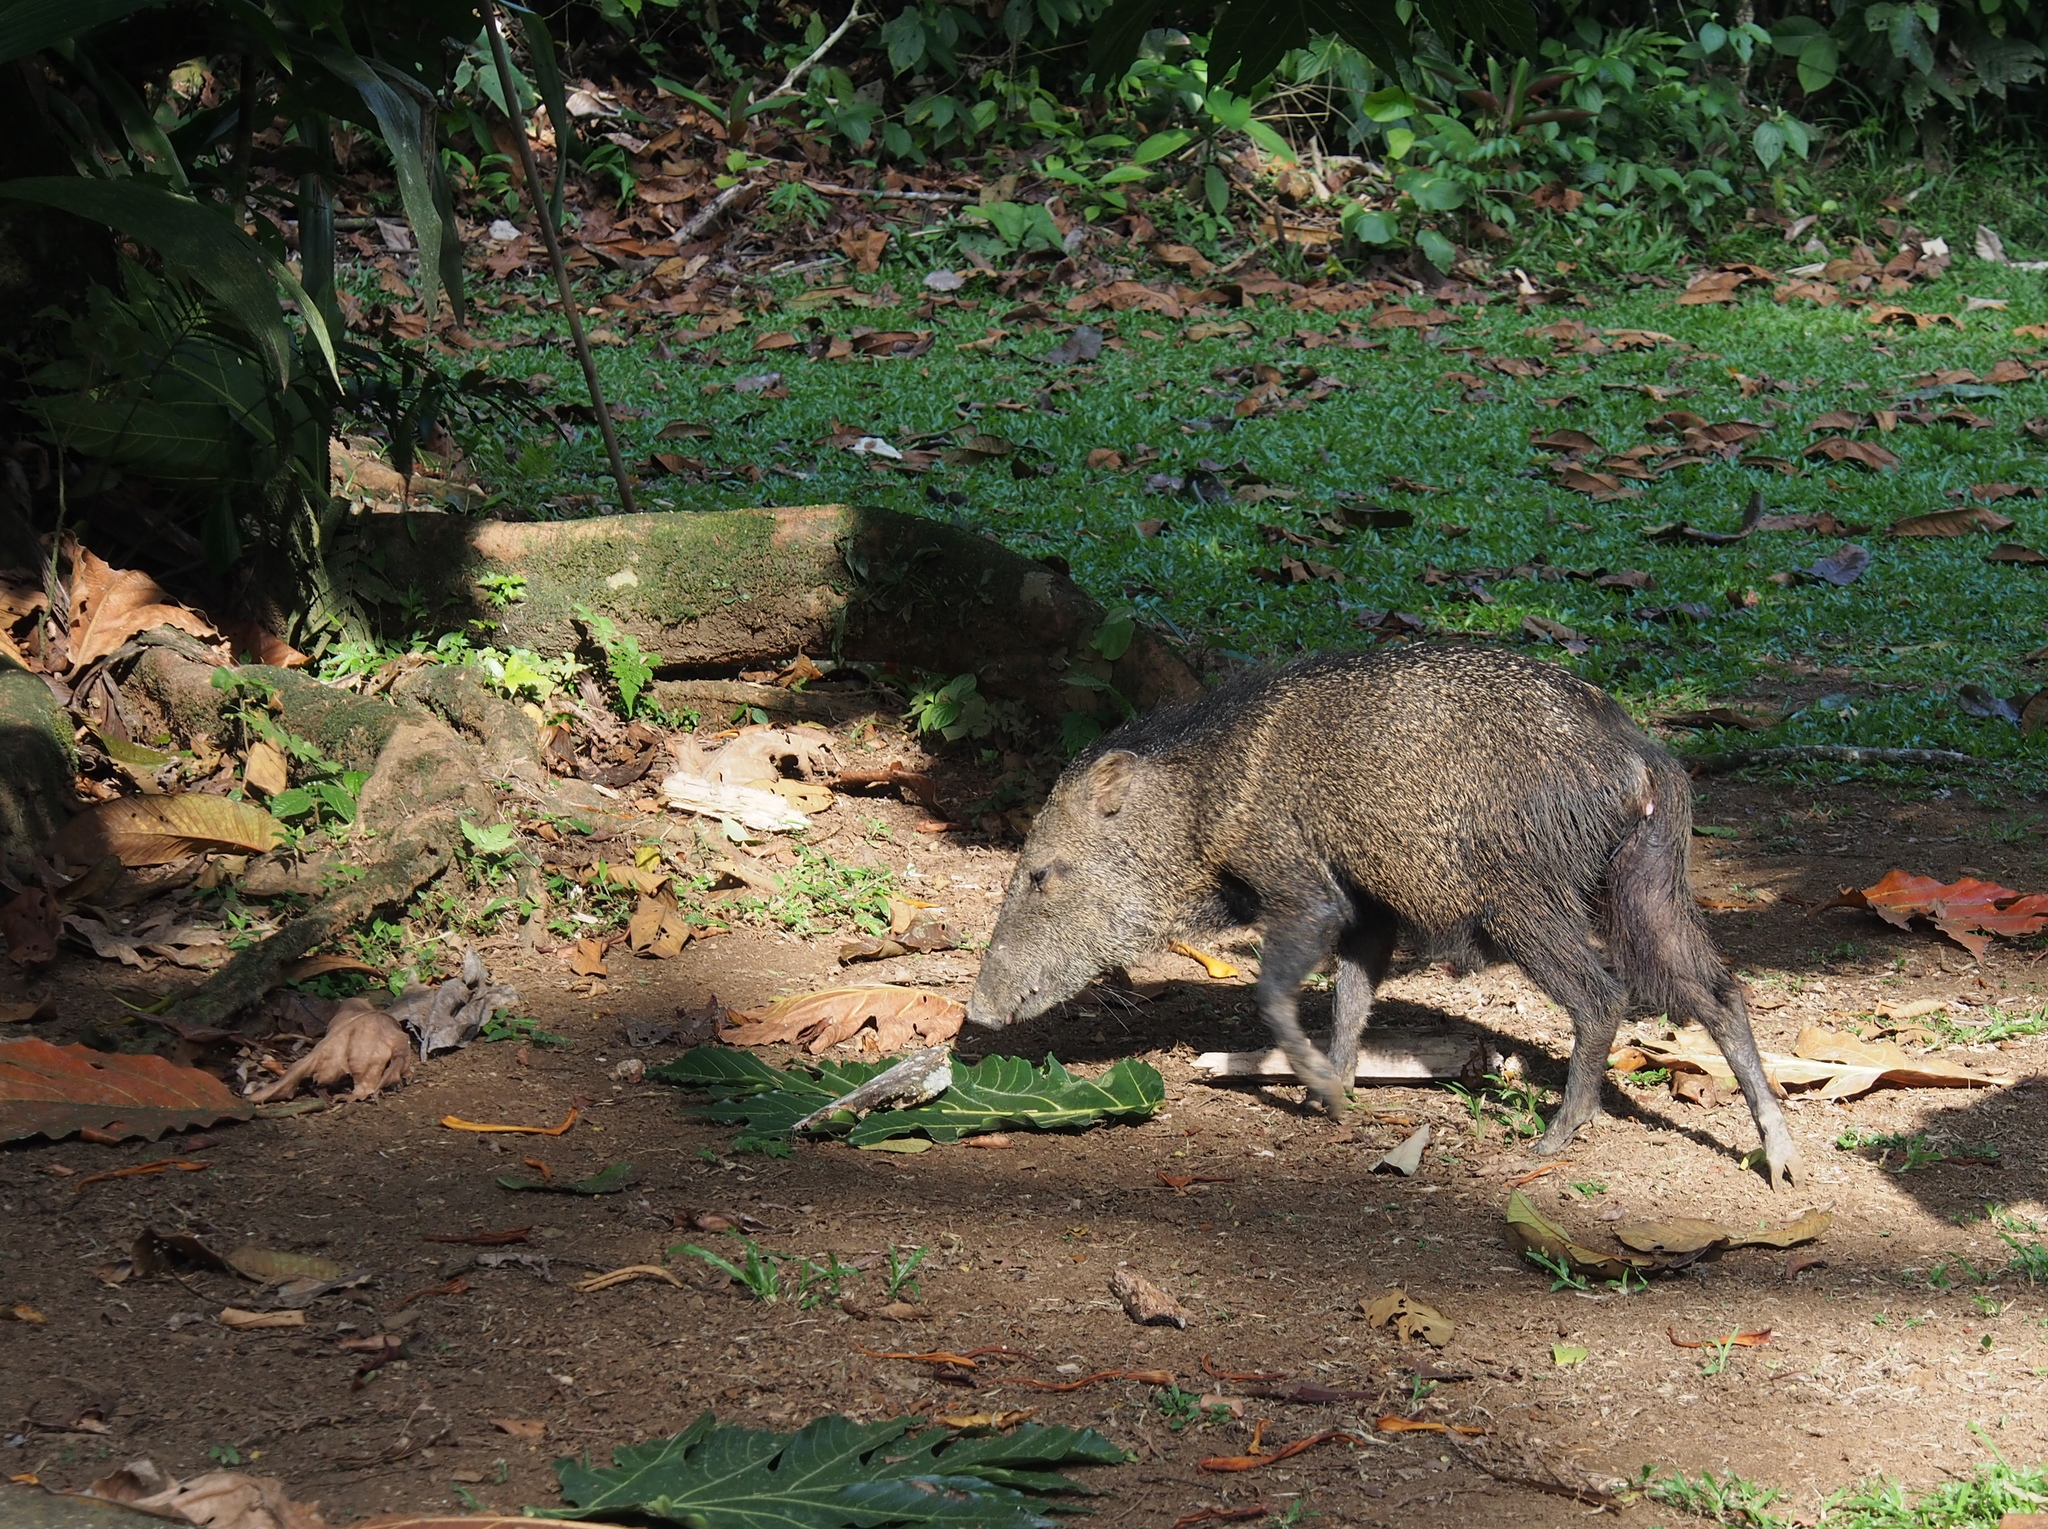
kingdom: Animalia
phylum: Chordata
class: Mammalia
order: Artiodactyla
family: Tayassuidae
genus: Pecari
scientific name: Pecari tajacu
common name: Collared peccary
